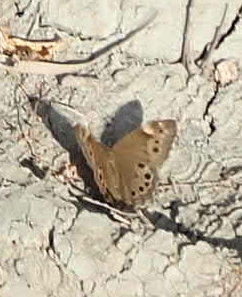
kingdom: Animalia
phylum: Arthropoda
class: Insecta
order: Lepidoptera
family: Nymphalidae
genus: Lethe
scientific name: Lethe anthedon
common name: Northern pearly-eye
